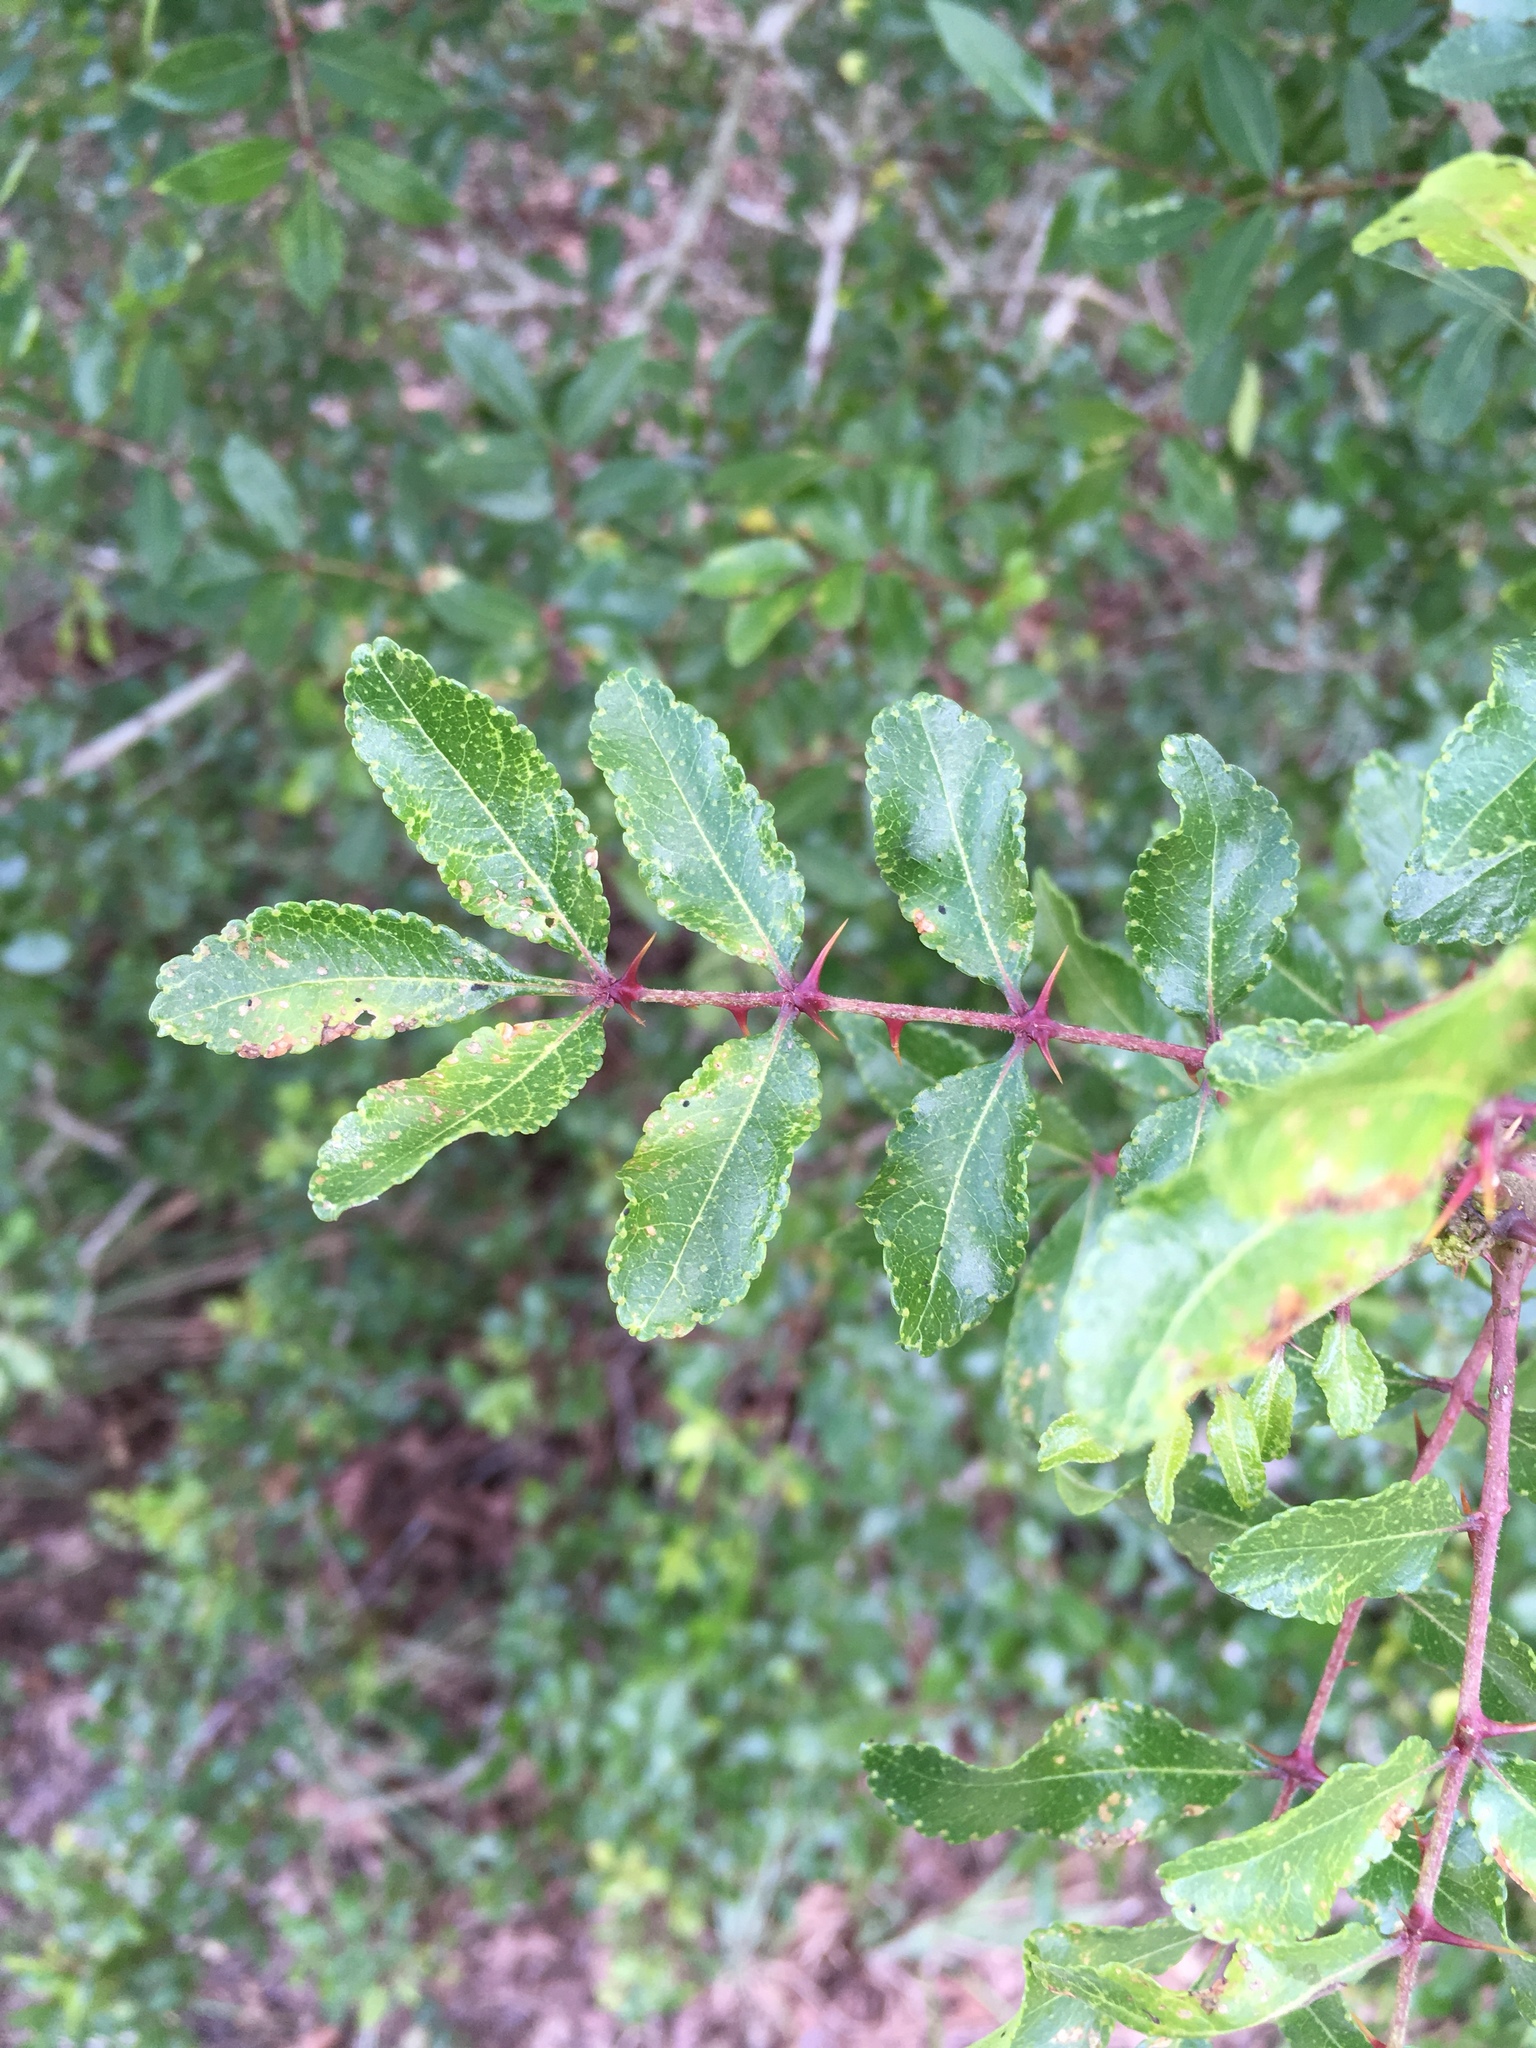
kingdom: Plantae
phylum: Tracheophyta
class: Magnoliopsida
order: Sapindales
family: Rutaceae
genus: Zanthoxylum
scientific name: Zanthoxylum clava-herculis
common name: Hercules'-club
